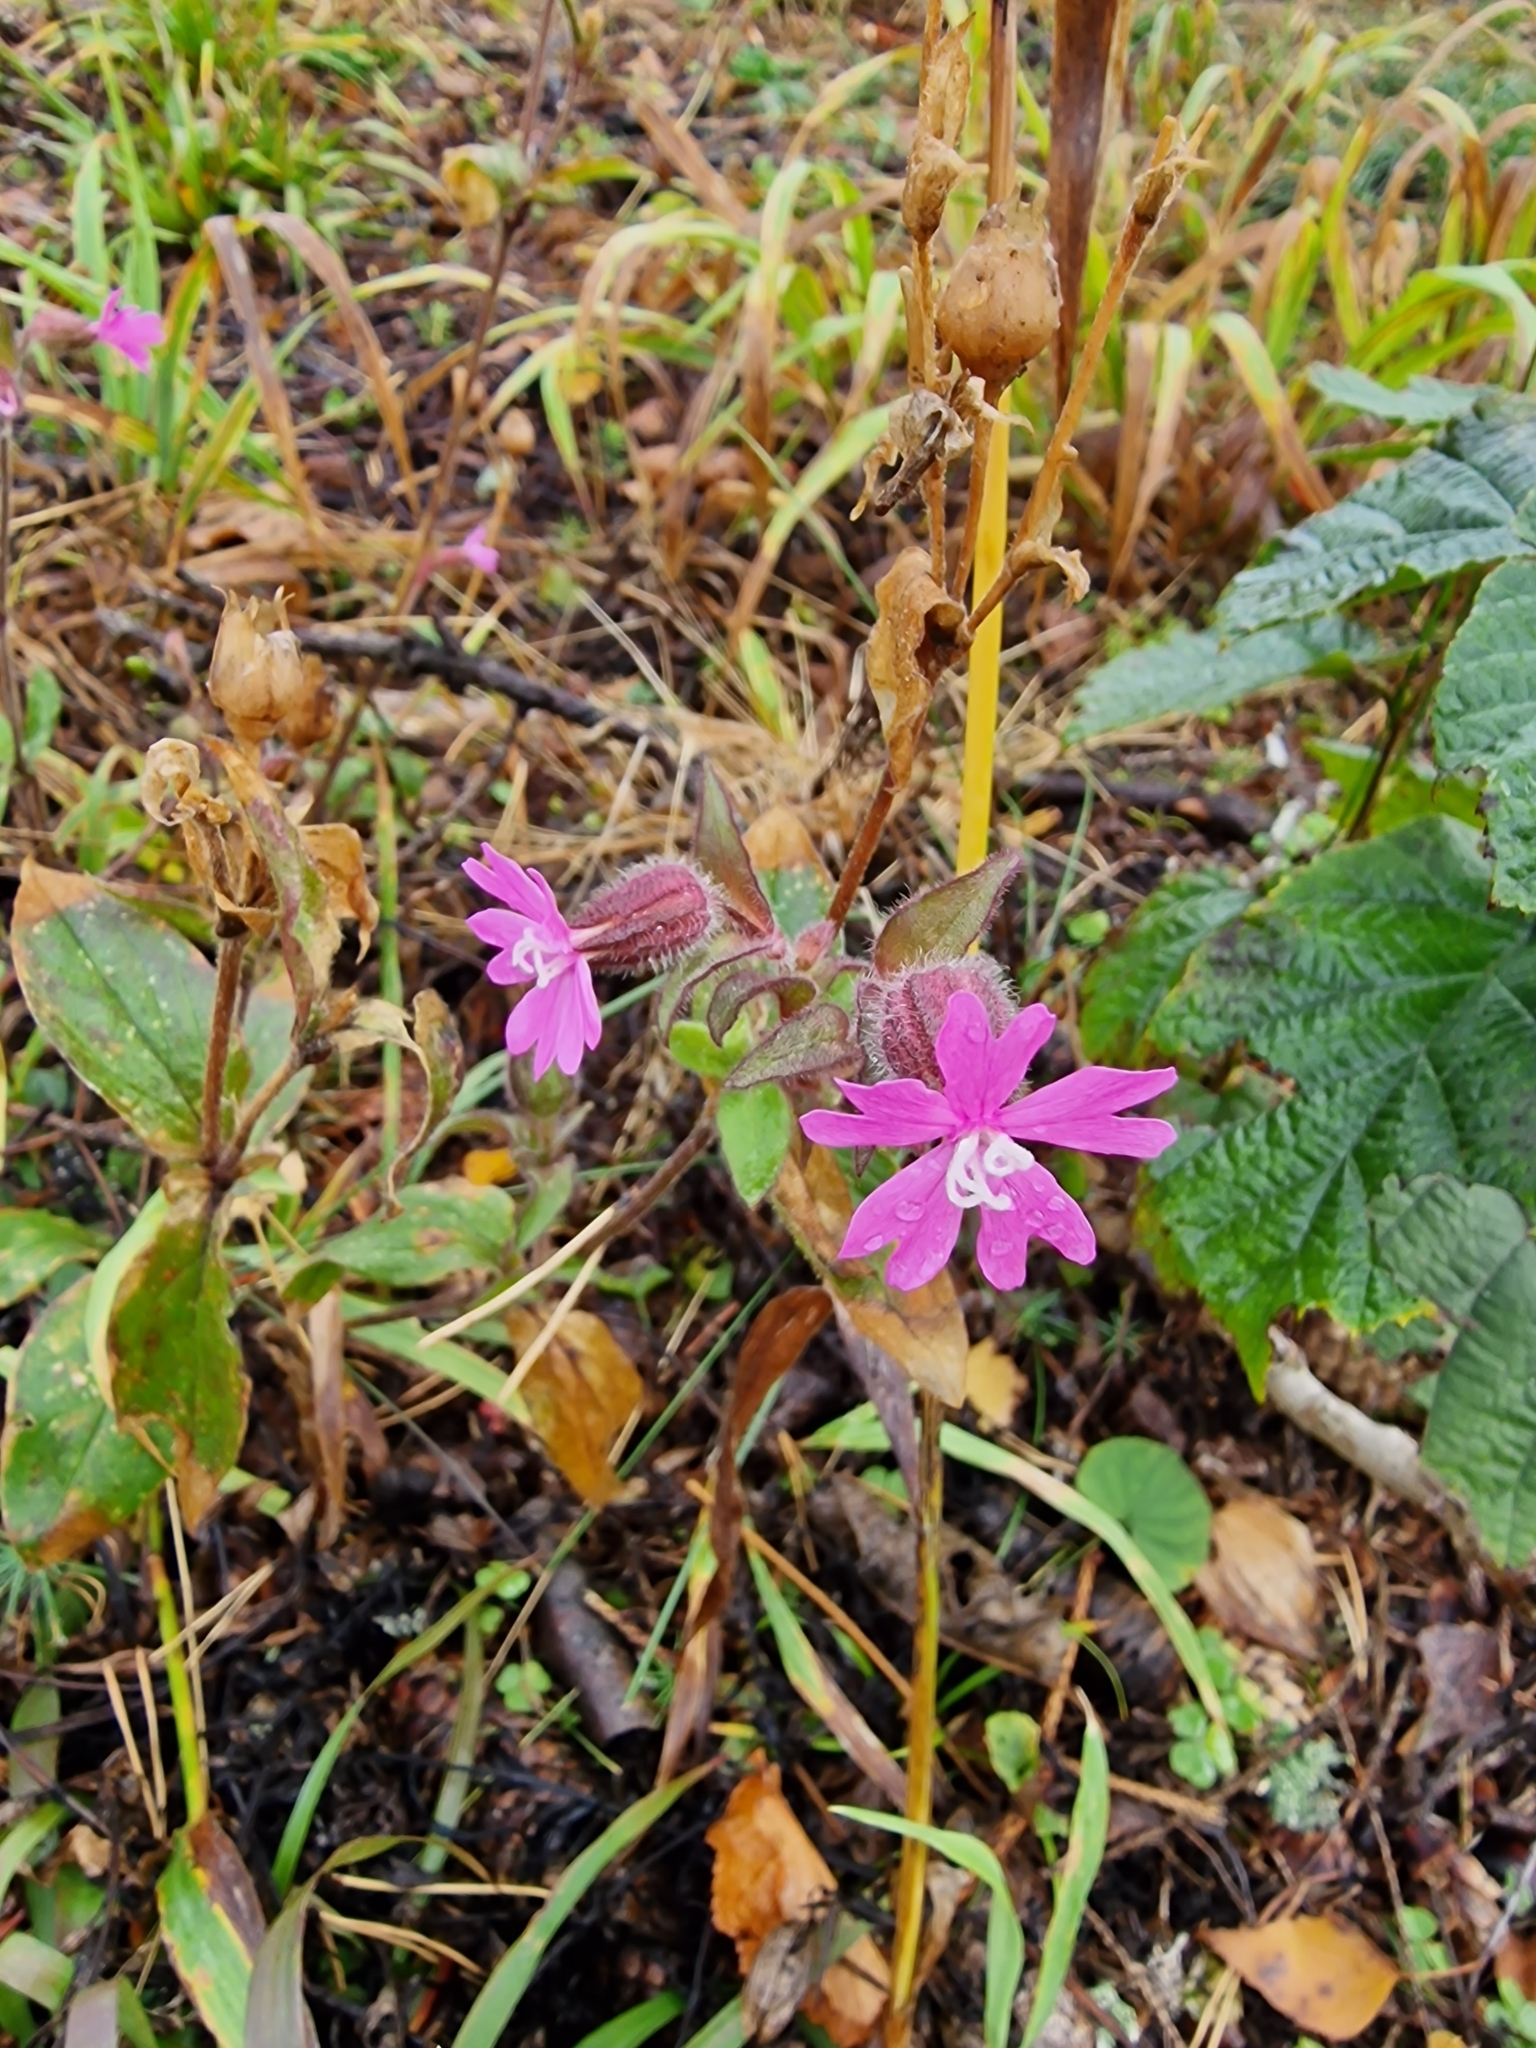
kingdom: Plantae
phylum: Tracheophyta
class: Magnoliopsida
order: Caryophyllales
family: Caryophyllaceae
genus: Silene
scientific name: Silene dioica
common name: Red campion
